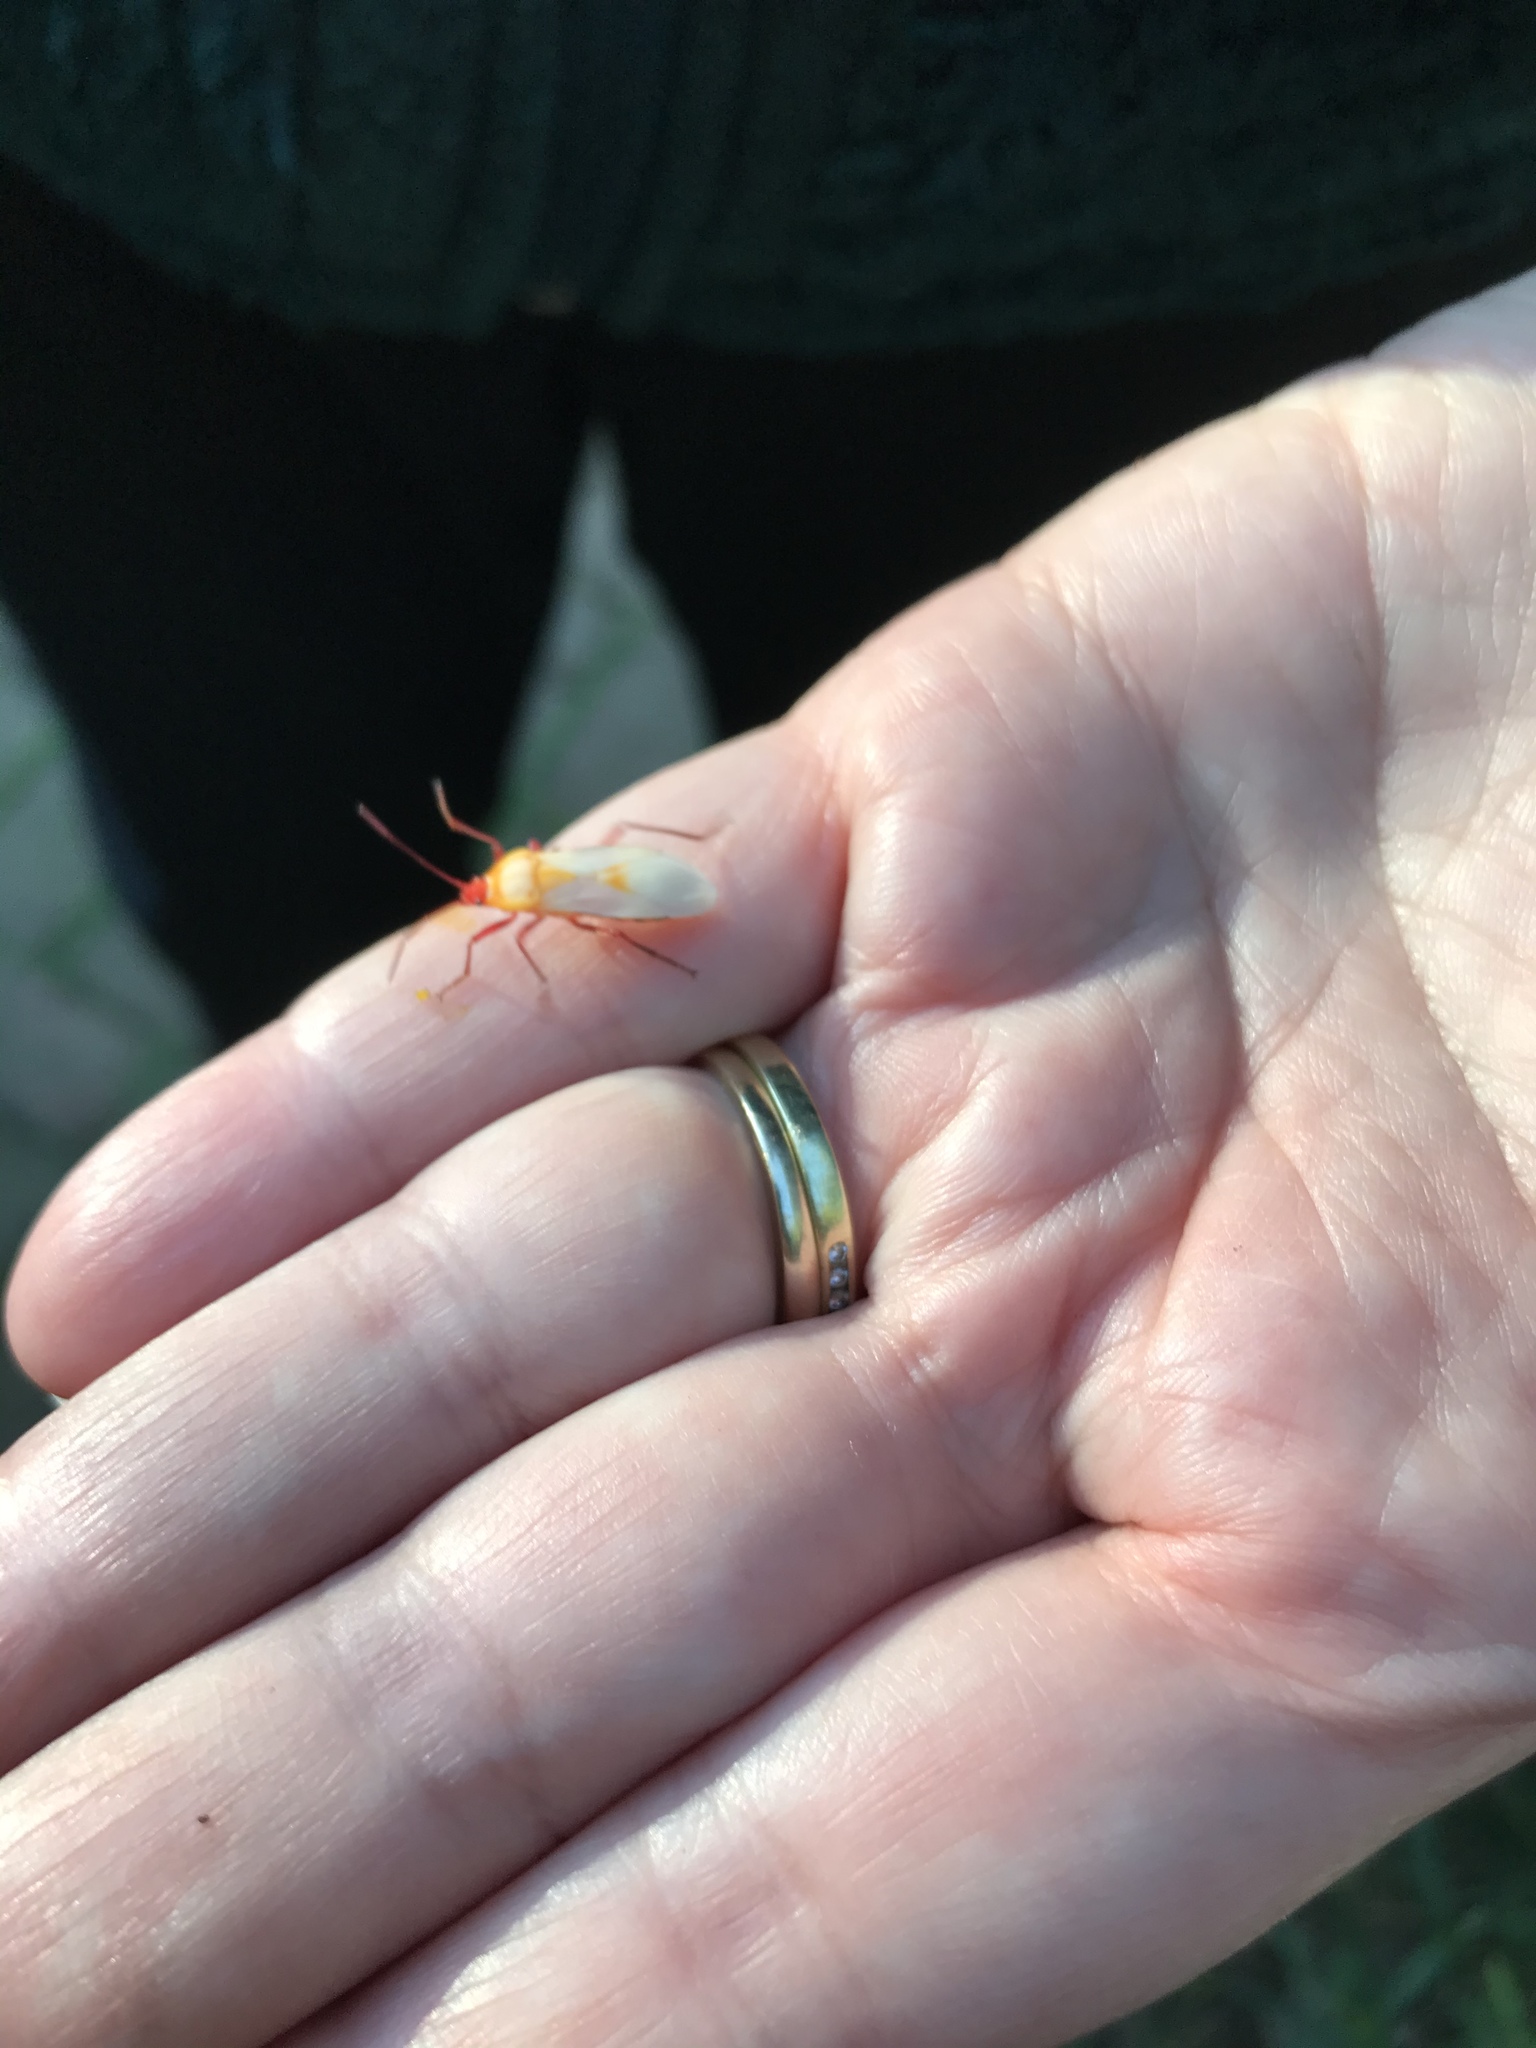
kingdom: Animalia
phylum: Arthropoda
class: Insecta
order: Hemiptera
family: Lygaeidae
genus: Oncopeltus
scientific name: Oncopeltus fasciatus
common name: Large milkweed bug
